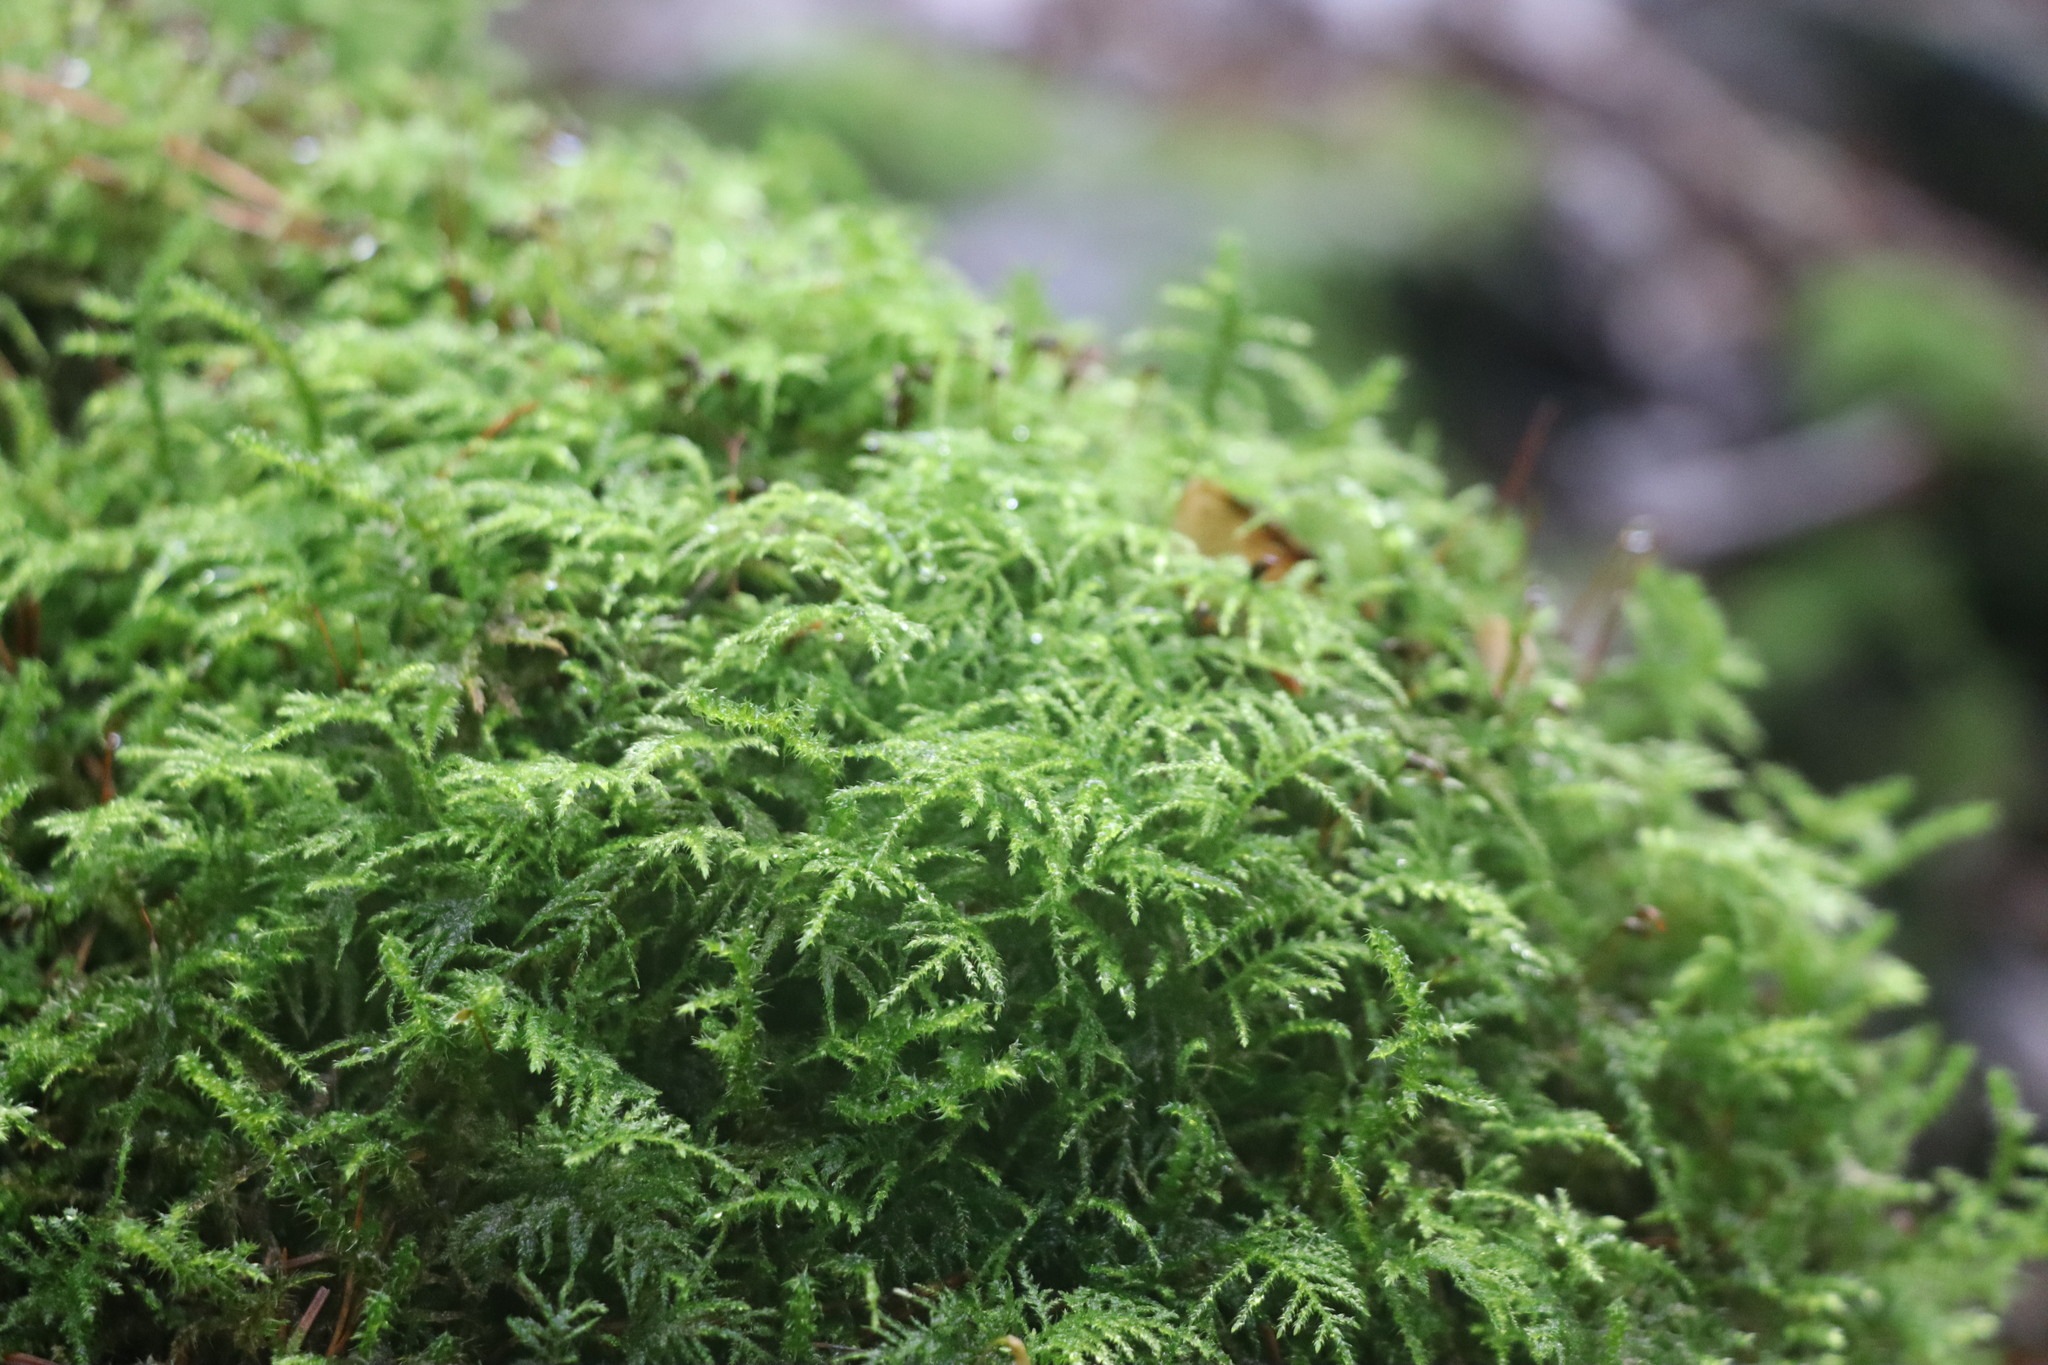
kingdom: Plantae
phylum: Bryophyta
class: Bryopsida
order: Hypnales
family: Brachytheciaceae
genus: Kindbergia
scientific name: Kindbergia praelonga
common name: Slender beaked moss
